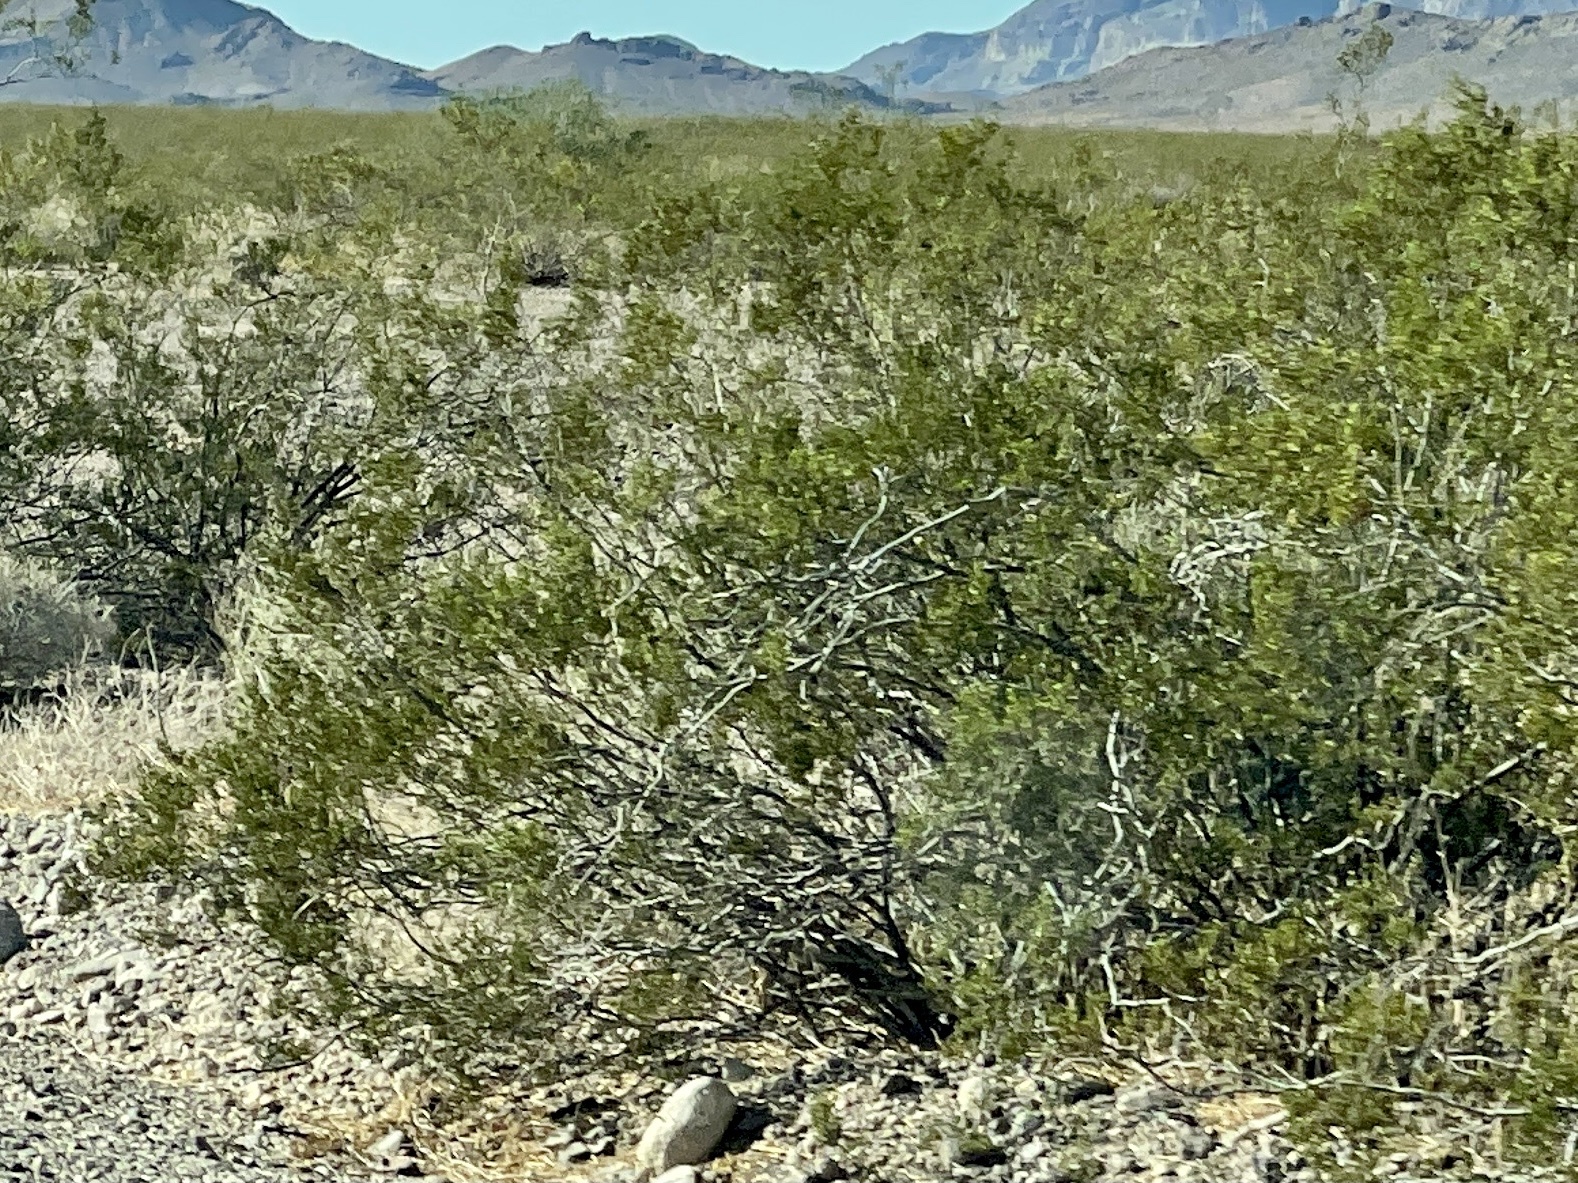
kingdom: Plantae
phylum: Tracheophyta
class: Magnoliopsida
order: Zygophyllales
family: Zygophyllaceae
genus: Larrea
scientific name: Larrea tridentata
